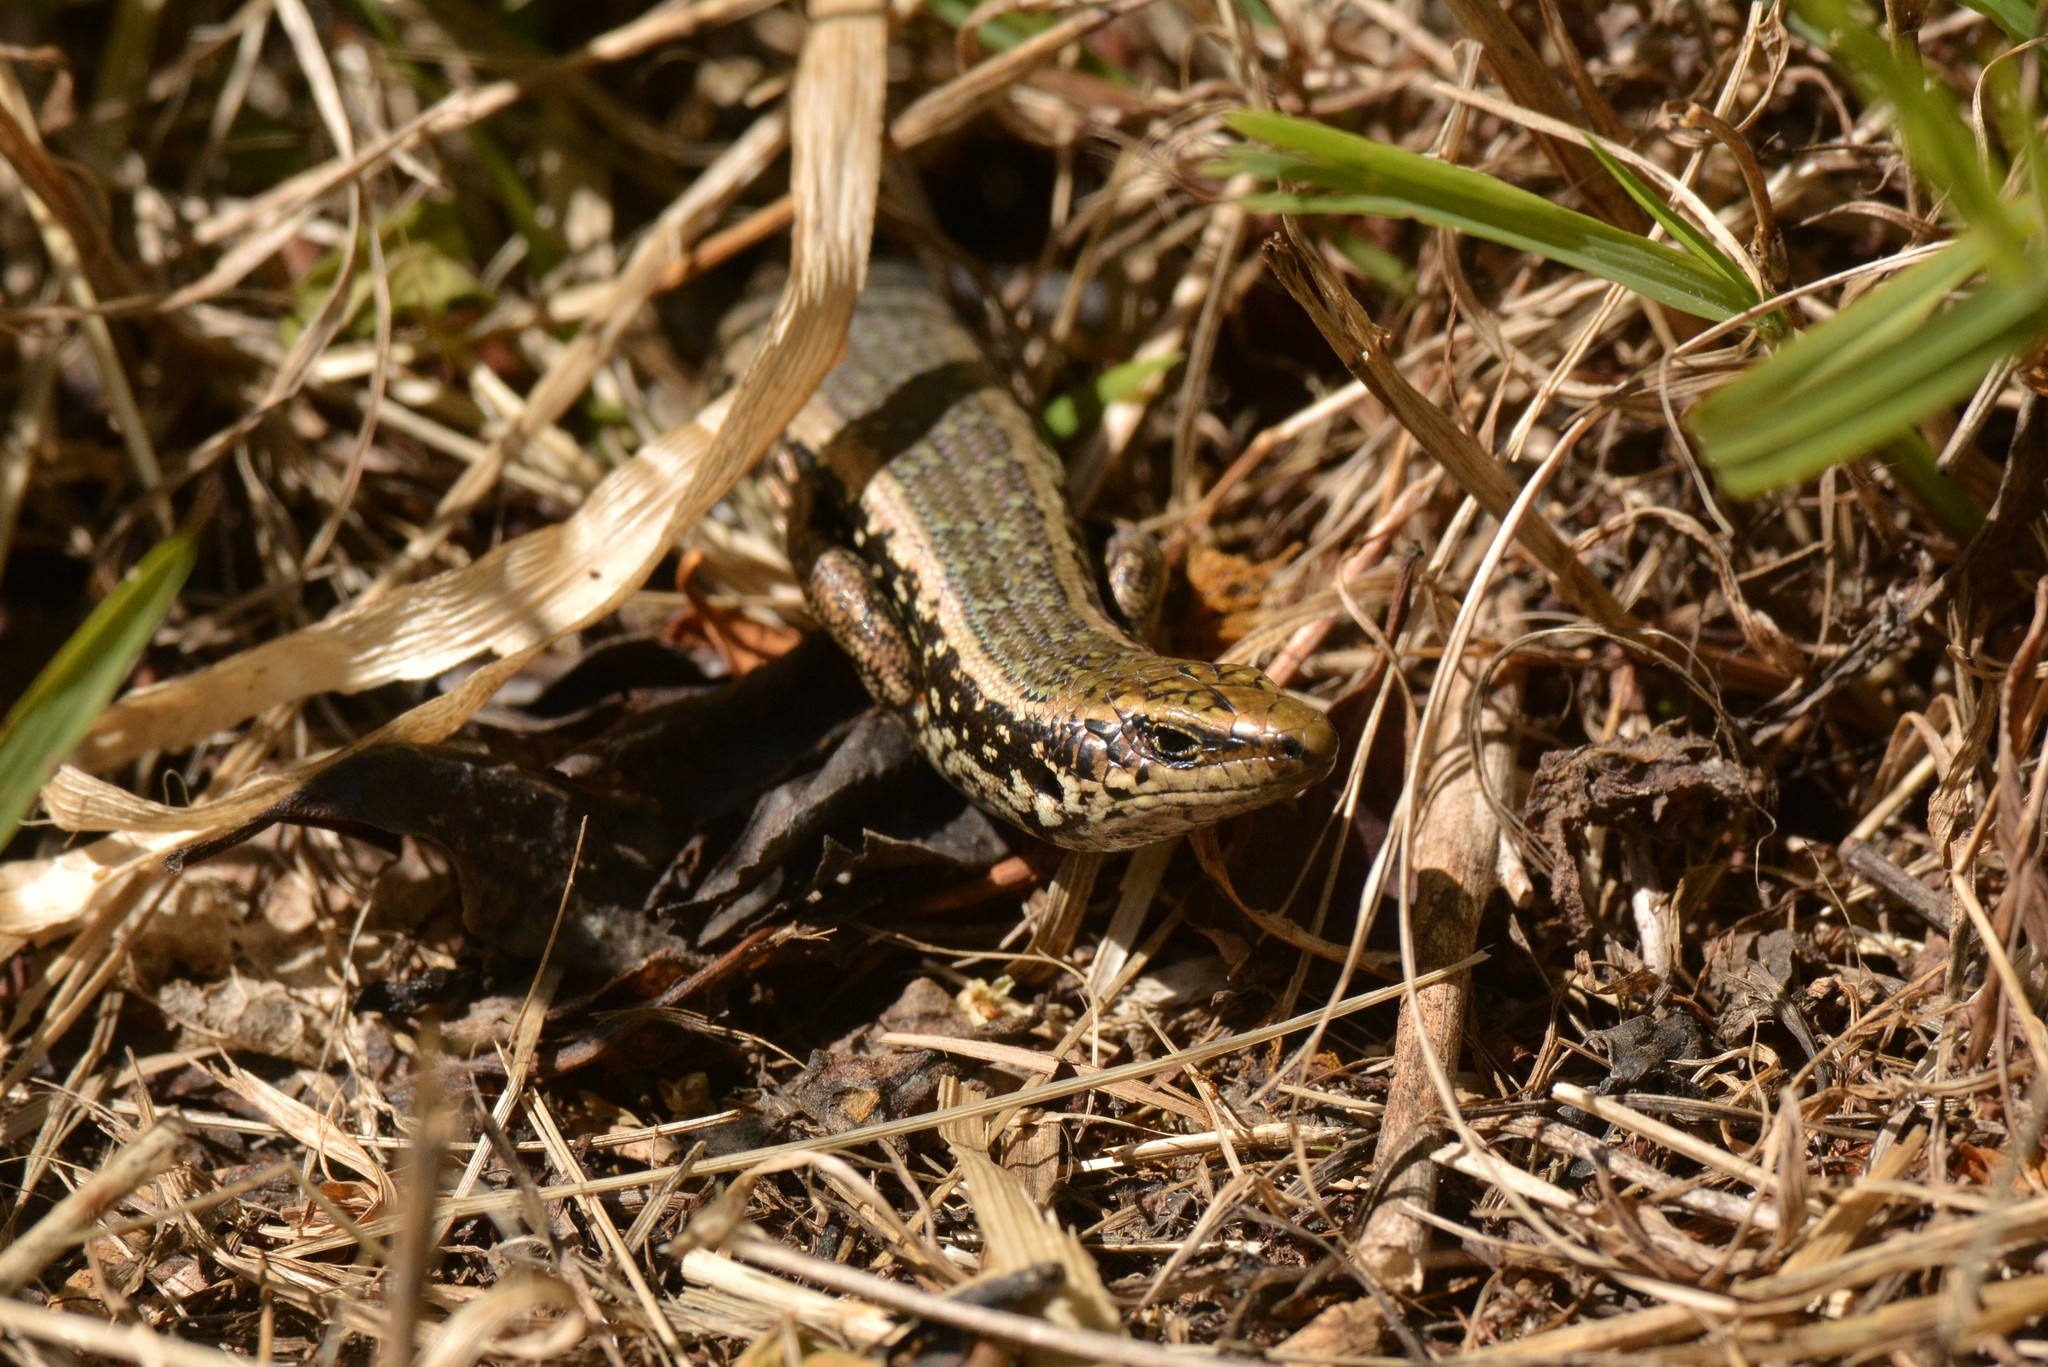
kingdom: Animalia
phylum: Chordata
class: Squamata
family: Scincidae
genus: Oligosoma
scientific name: Oligosoma kokowai
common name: Northern spotted skink
